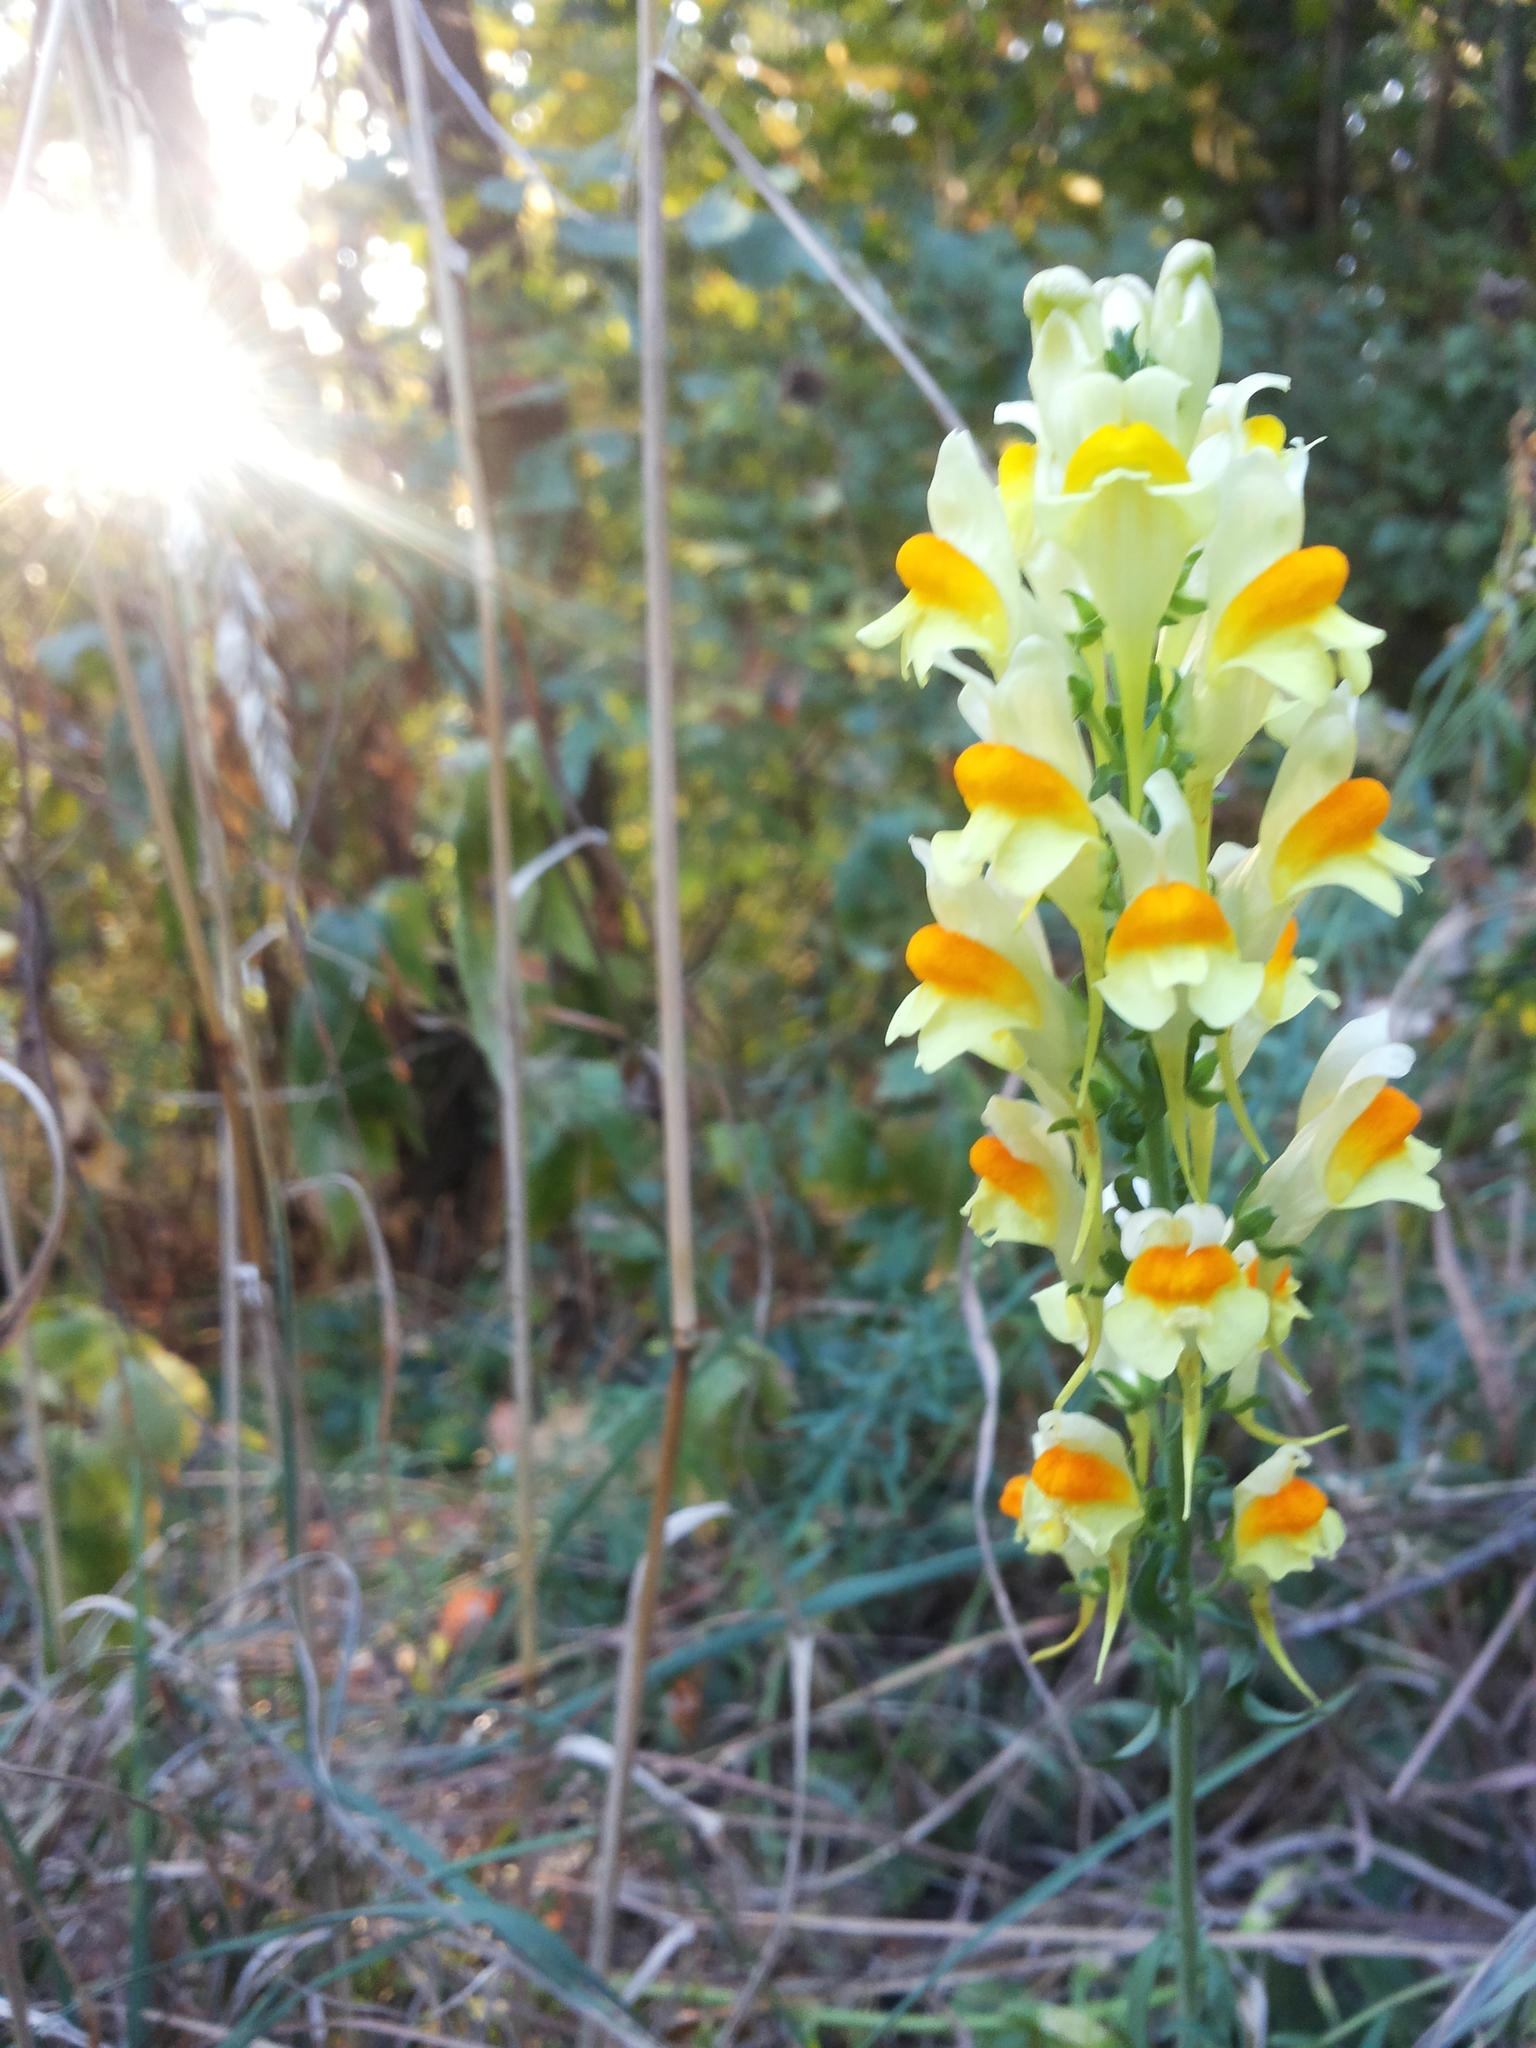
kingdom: Plantae
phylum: Tracheophyta
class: Magnoliopsida
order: Lamiales
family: Plantaginaceae
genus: Linaria
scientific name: Linaria vulgaris
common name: Butter and eggs
